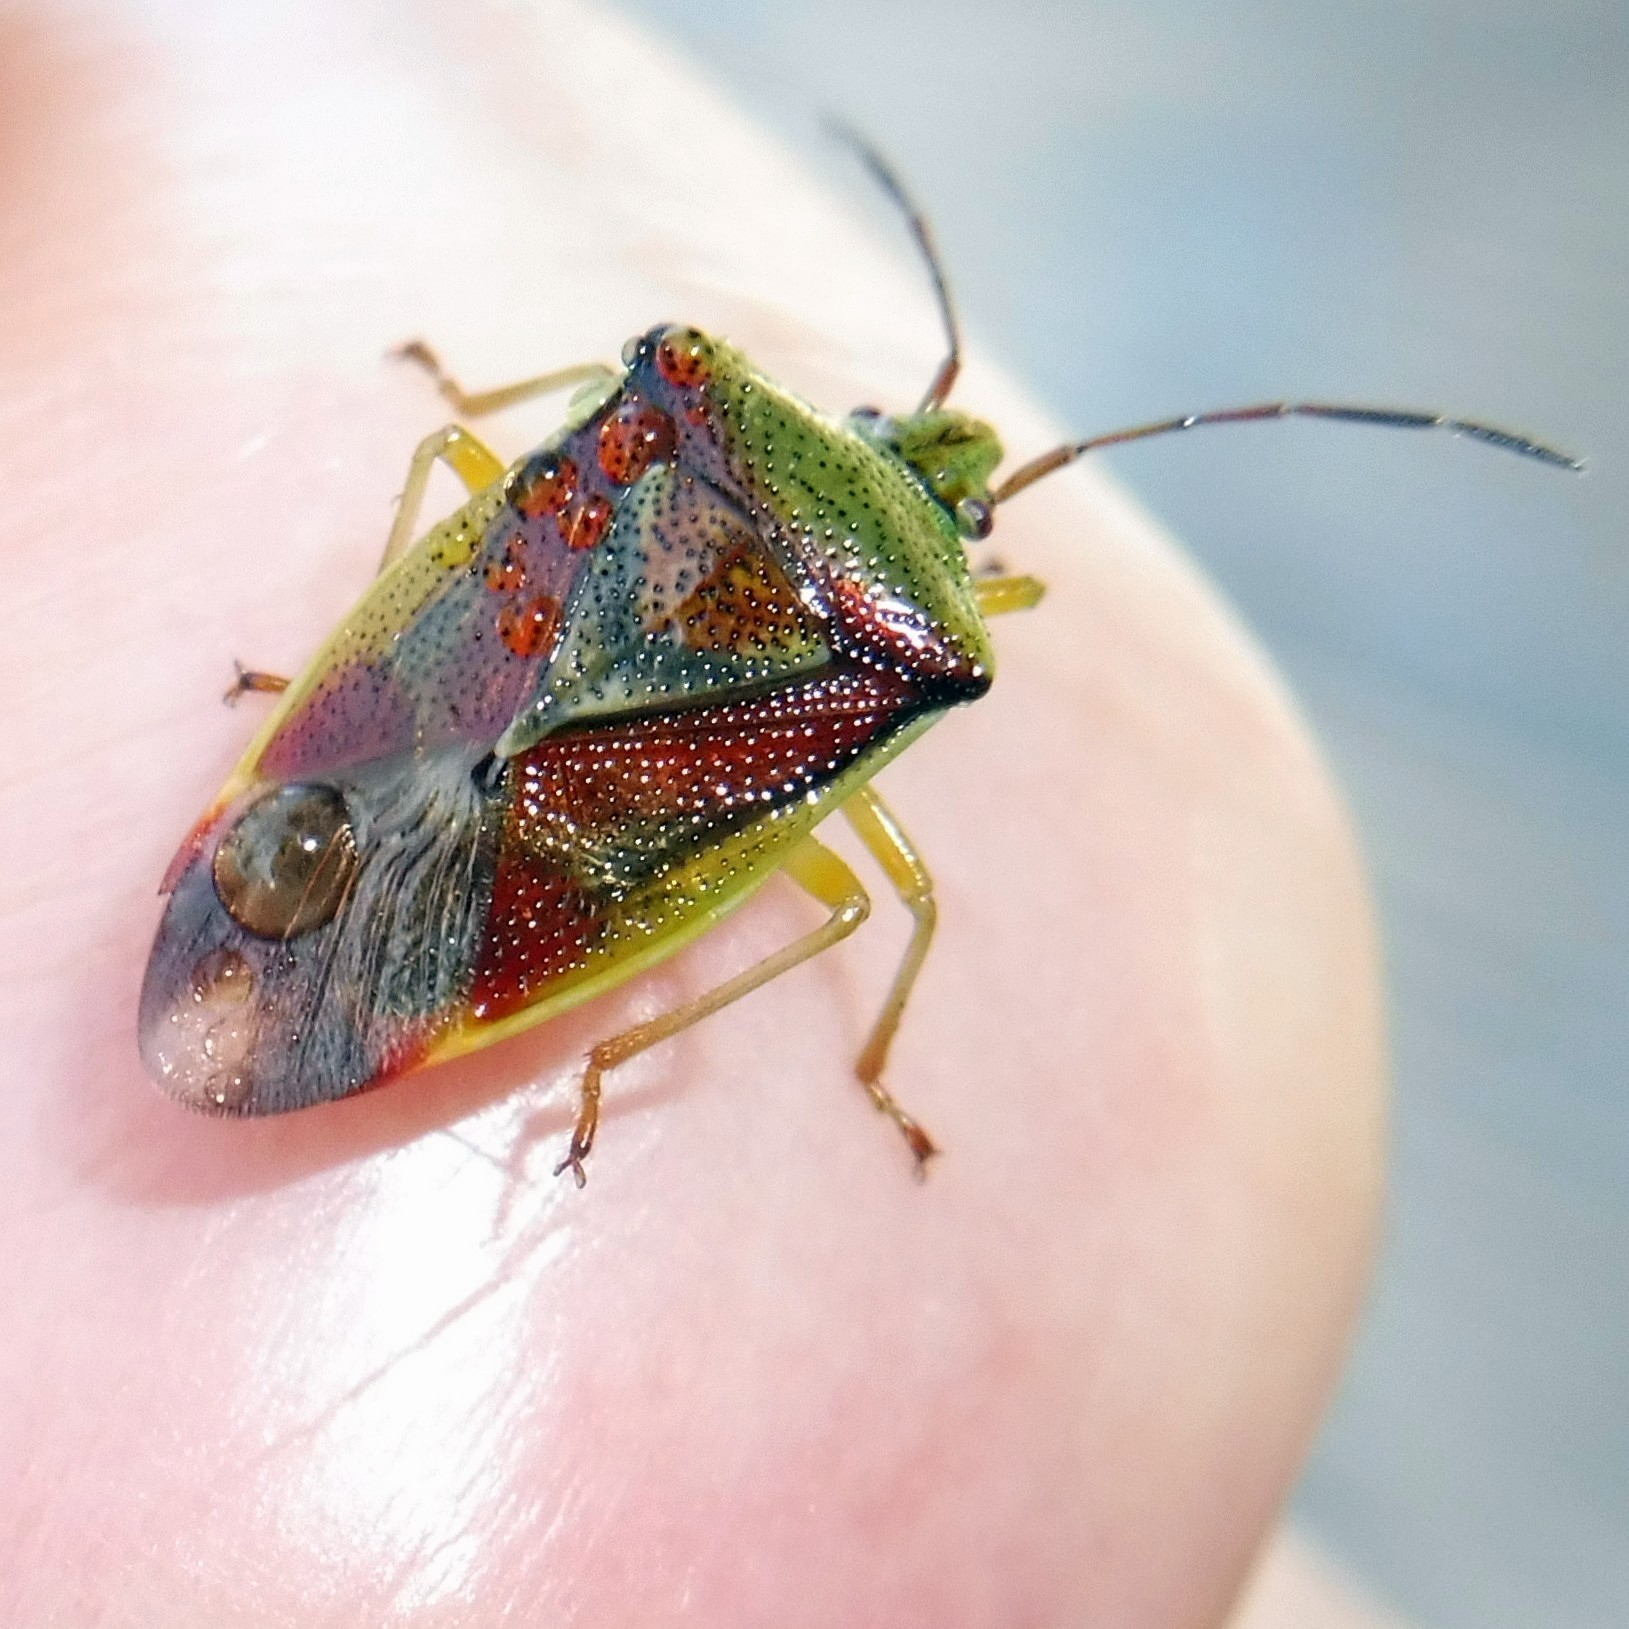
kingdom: Animalia
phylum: Arthropoda
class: Insecta
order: Hemiptera
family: Acanthosomatidae
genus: Elasmostethus
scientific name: Elasmostethus interstinctus
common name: Birch shieldbug
